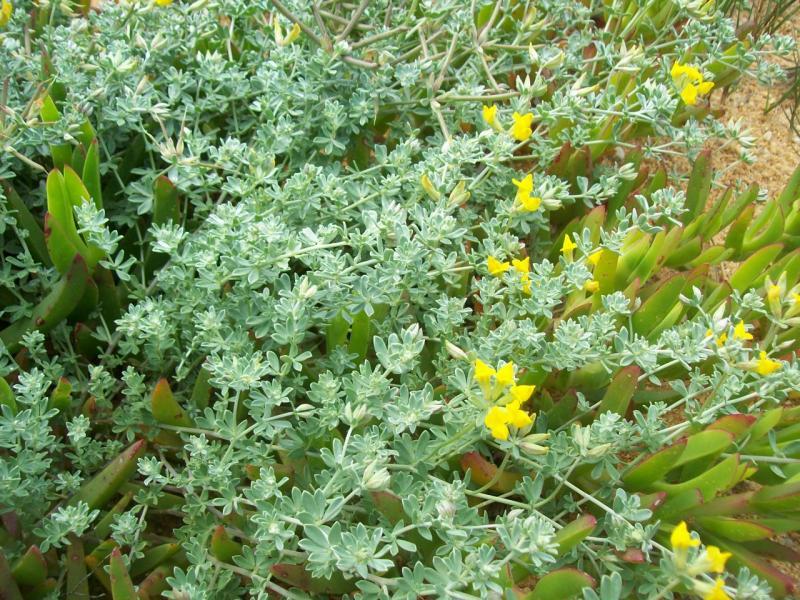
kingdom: Plantae
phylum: Tracheophyta
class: Magnoliopsida
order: Fabales
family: Fabaceae
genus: Lotus
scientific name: Lotus creticus
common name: Cretan bird's-foot trefoil
